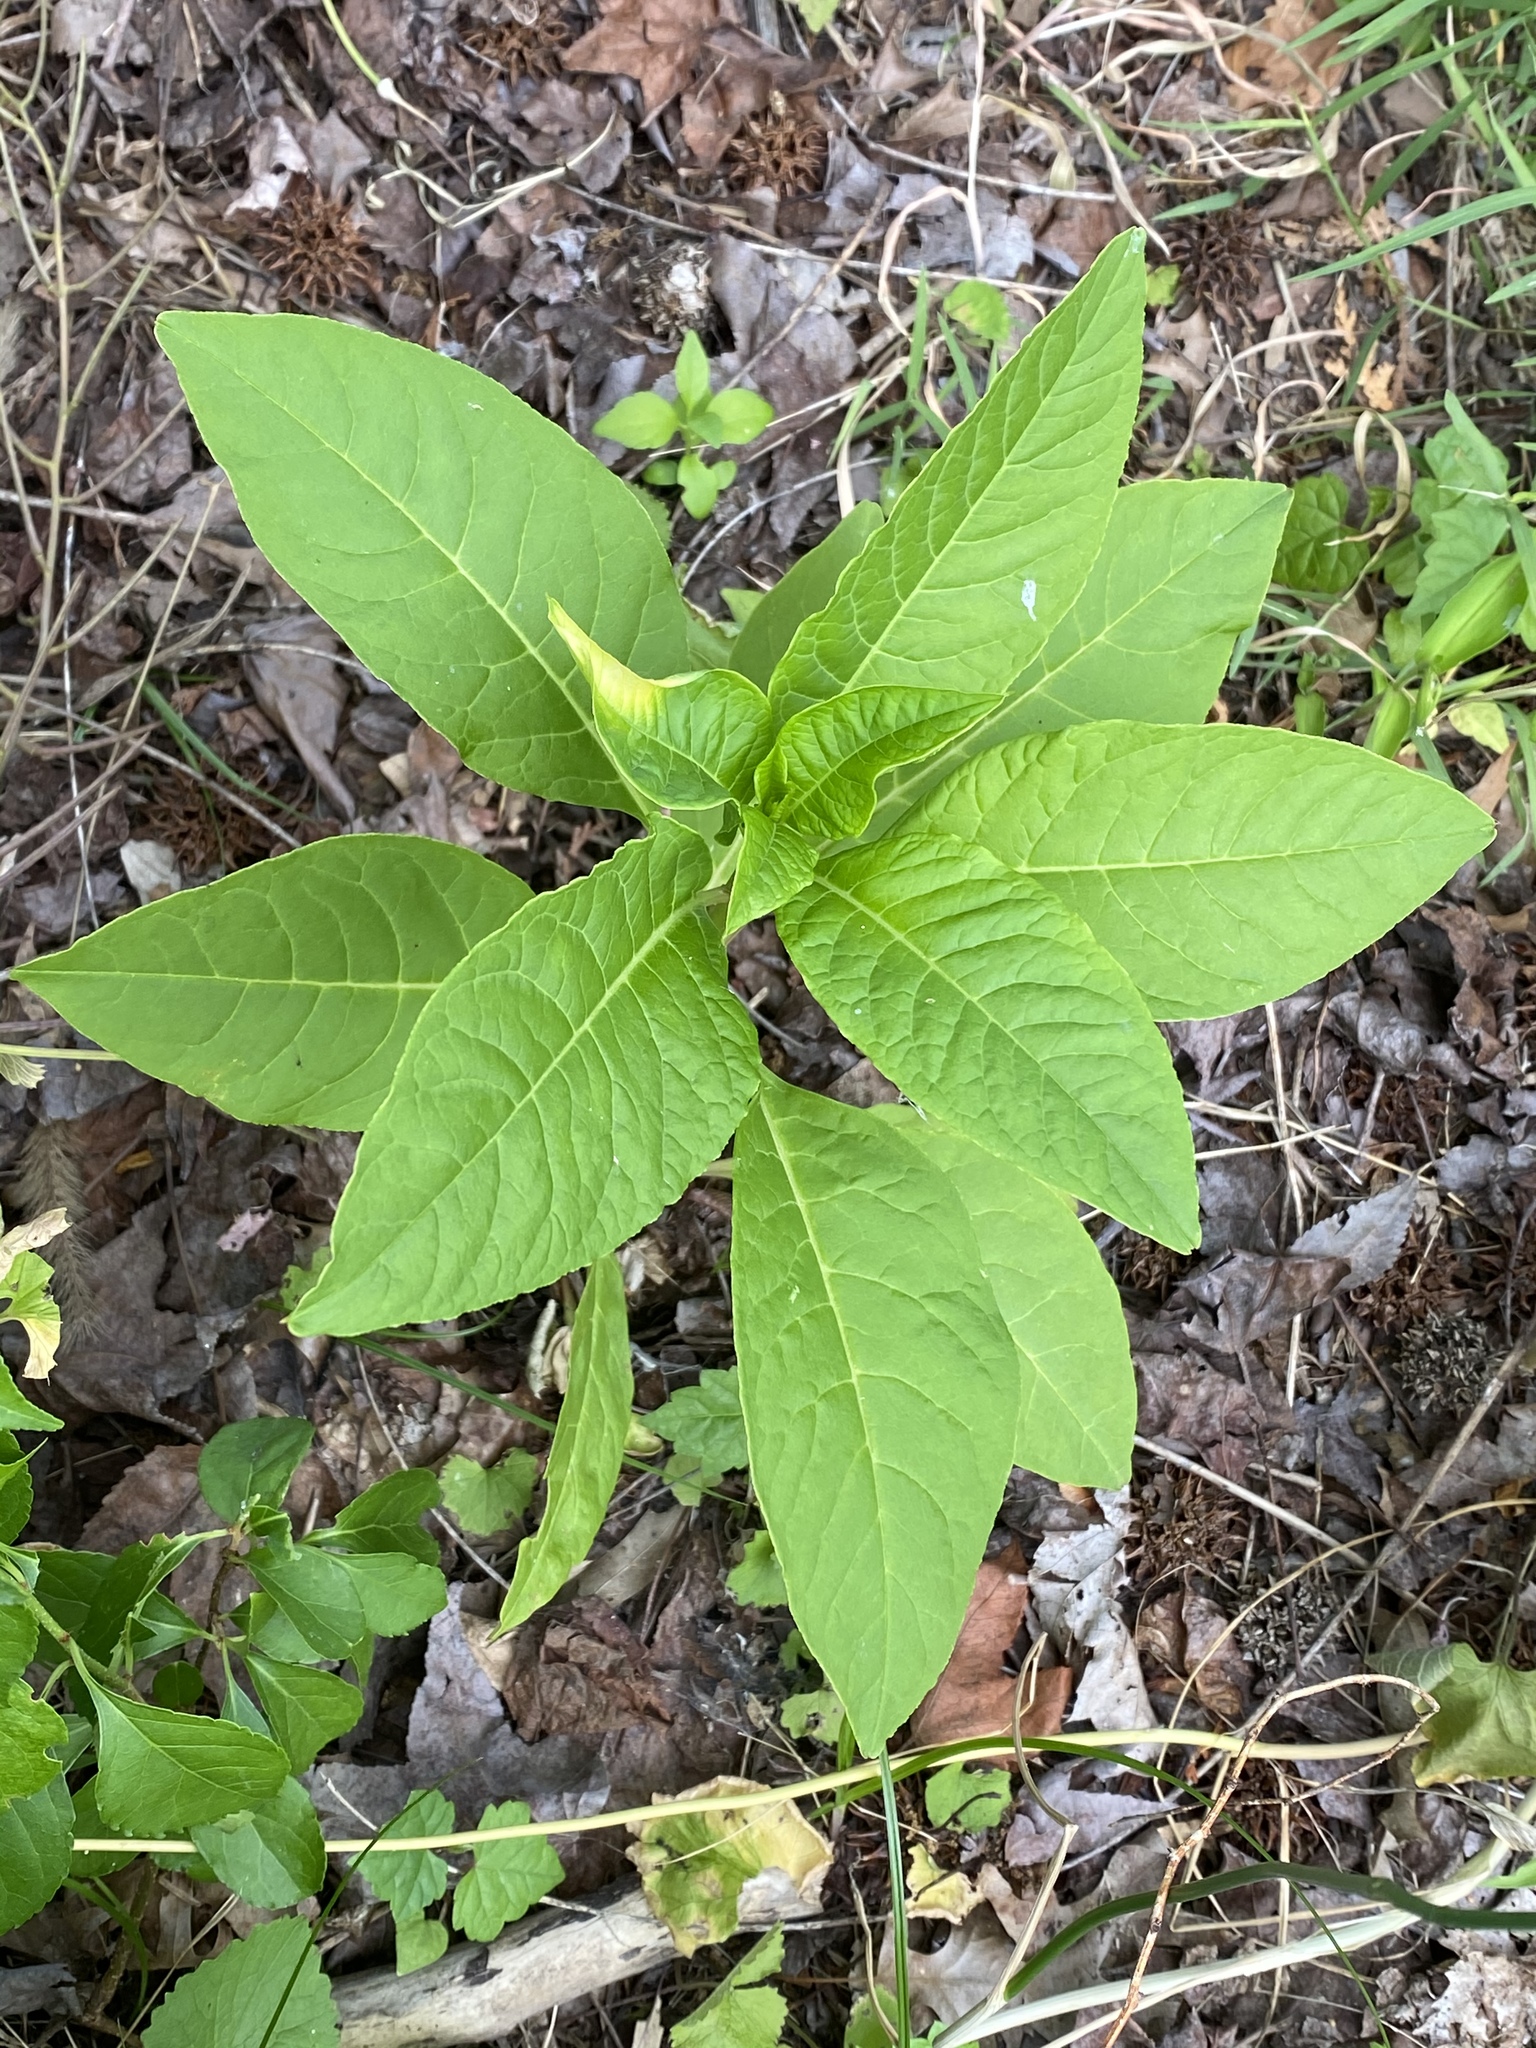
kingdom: Plantae
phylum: Tracheophyta
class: Magnoliopsida
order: Caryophyllales
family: Phytolaccaceae
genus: Phytolacca
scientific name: Phytolacca americana
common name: American pokeweed
